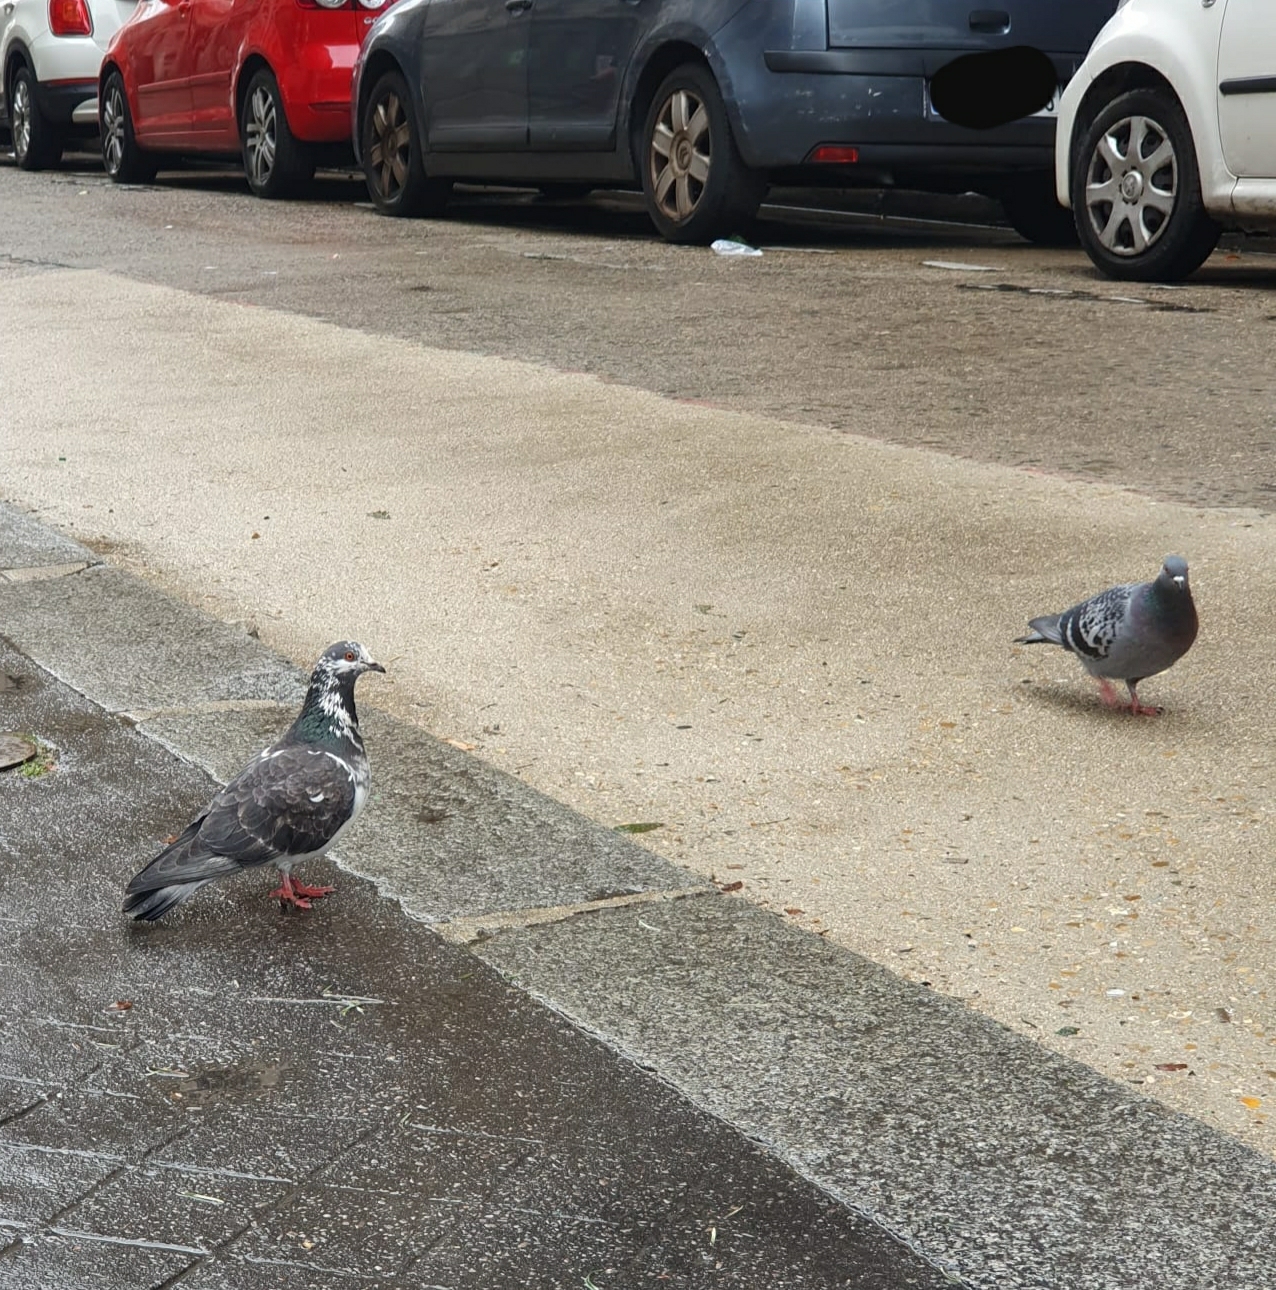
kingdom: Animalia
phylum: Chordata
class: Aves
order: Columbiformes
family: Columbidae
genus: Columba
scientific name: Columba livia
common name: Rock pigeon
